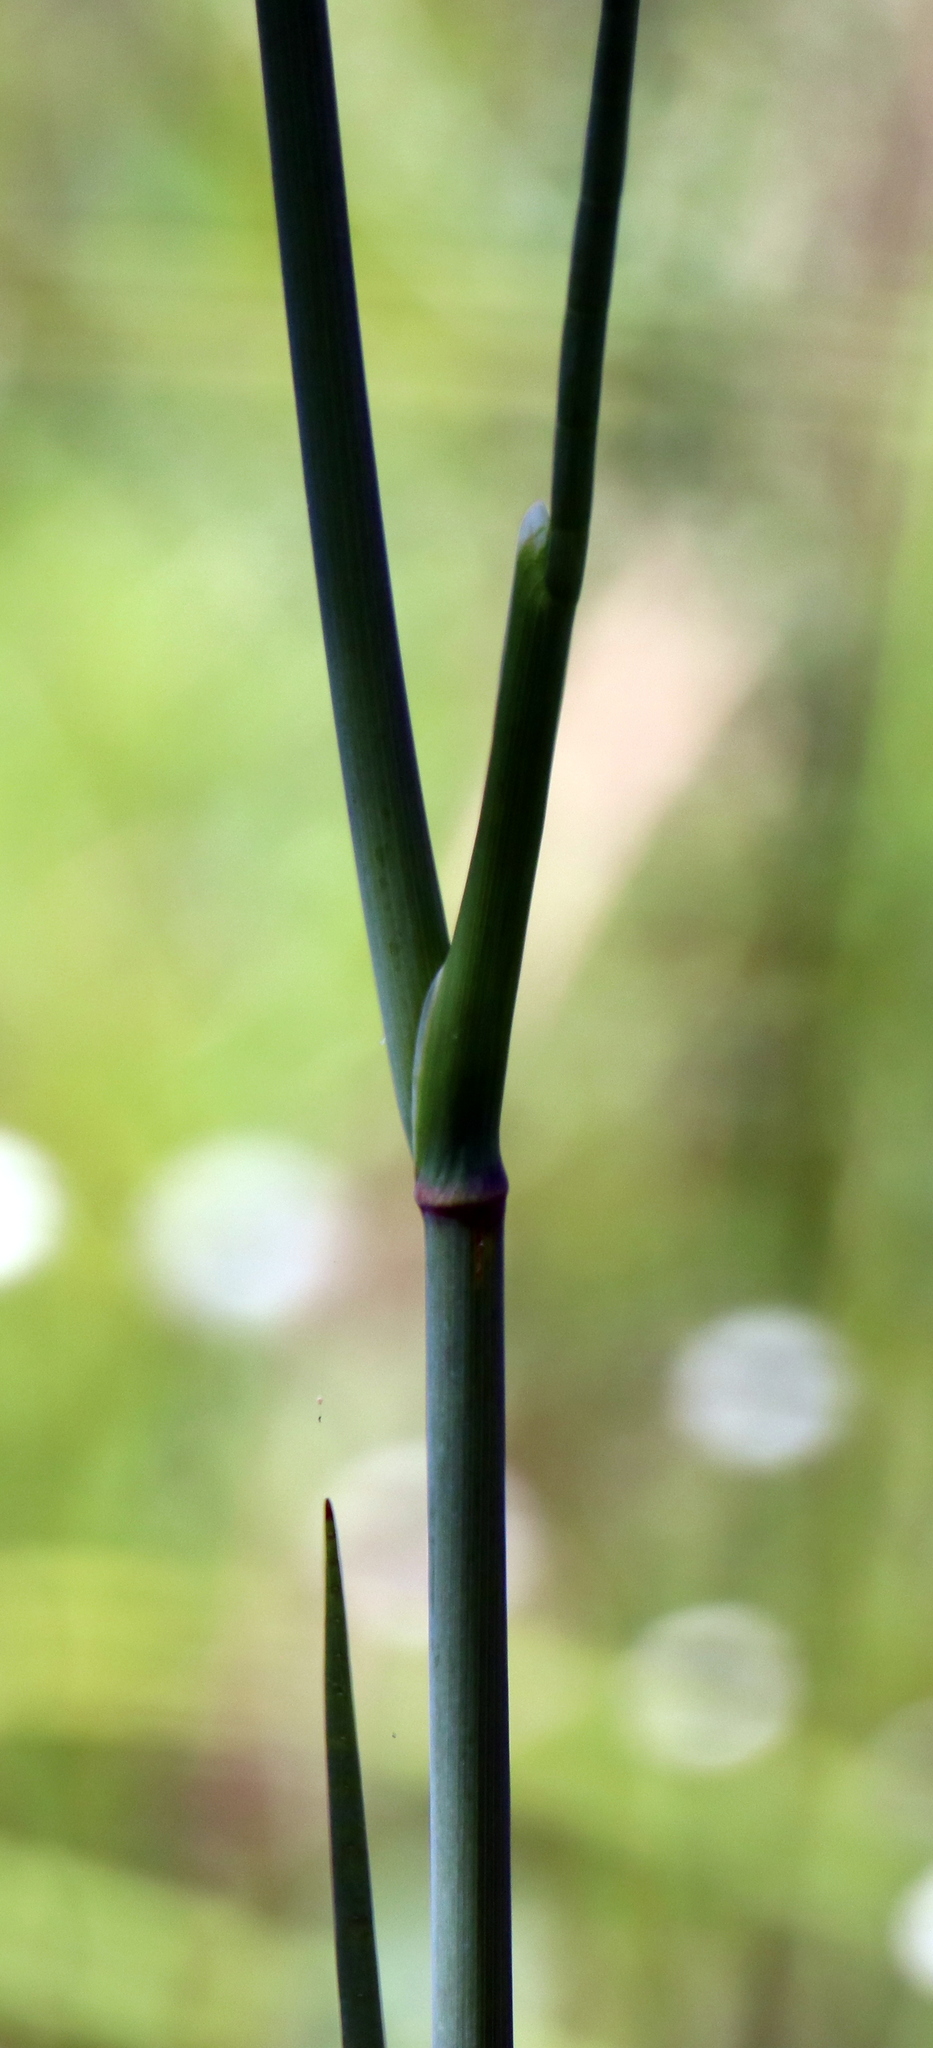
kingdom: Plantae
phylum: Tracheophyta
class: Magnoliopsida
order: Apiales
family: Apiaceae
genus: Tiedemannia
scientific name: Tiedemannia filiformis
